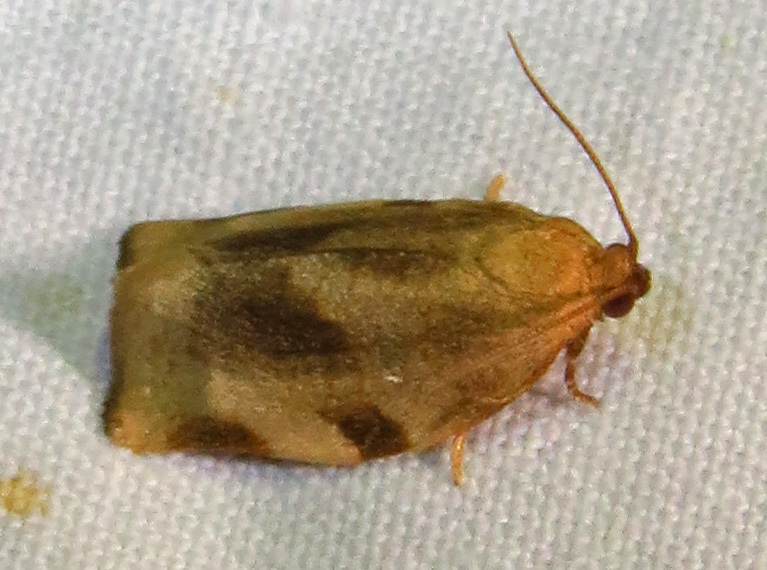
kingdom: Animalia
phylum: Arthropoda
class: Insecta
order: Lepidoptera
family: Tortricidae
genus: Choristoneura
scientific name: Choristoneura fractivittana
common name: Broken-banded leafroller moth
